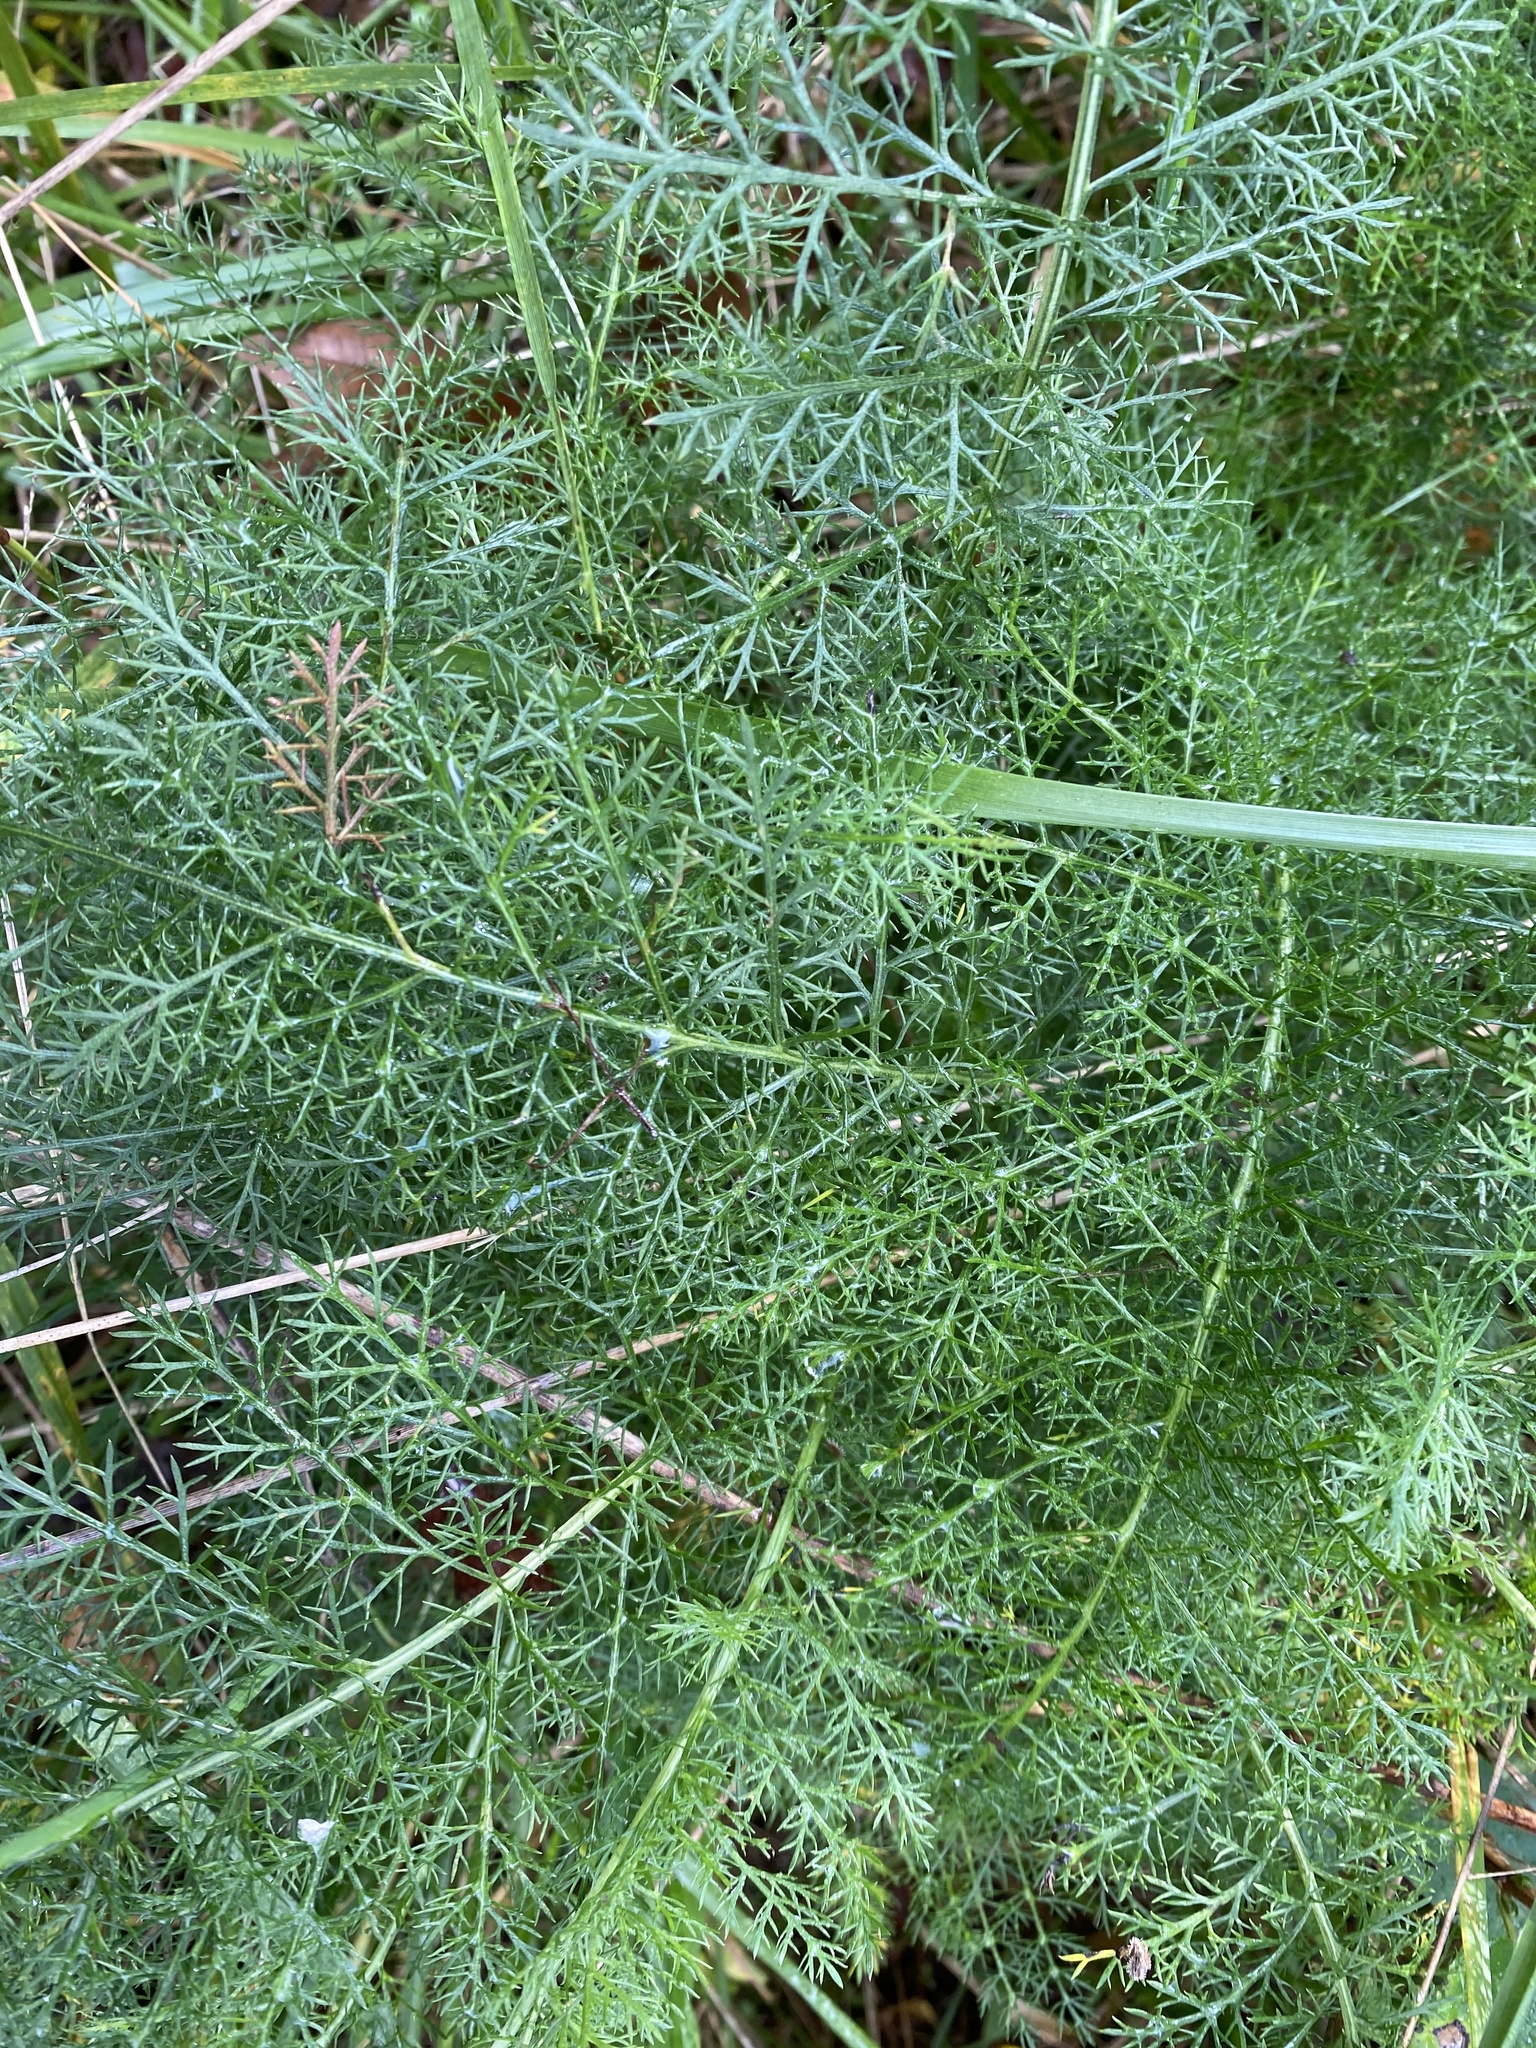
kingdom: Plantae
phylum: Tracheophyta
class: Magnoliopsida
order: Apiales
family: Apiaceae
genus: Foeniculum
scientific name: Foeniculum vulgare
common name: Fennel
